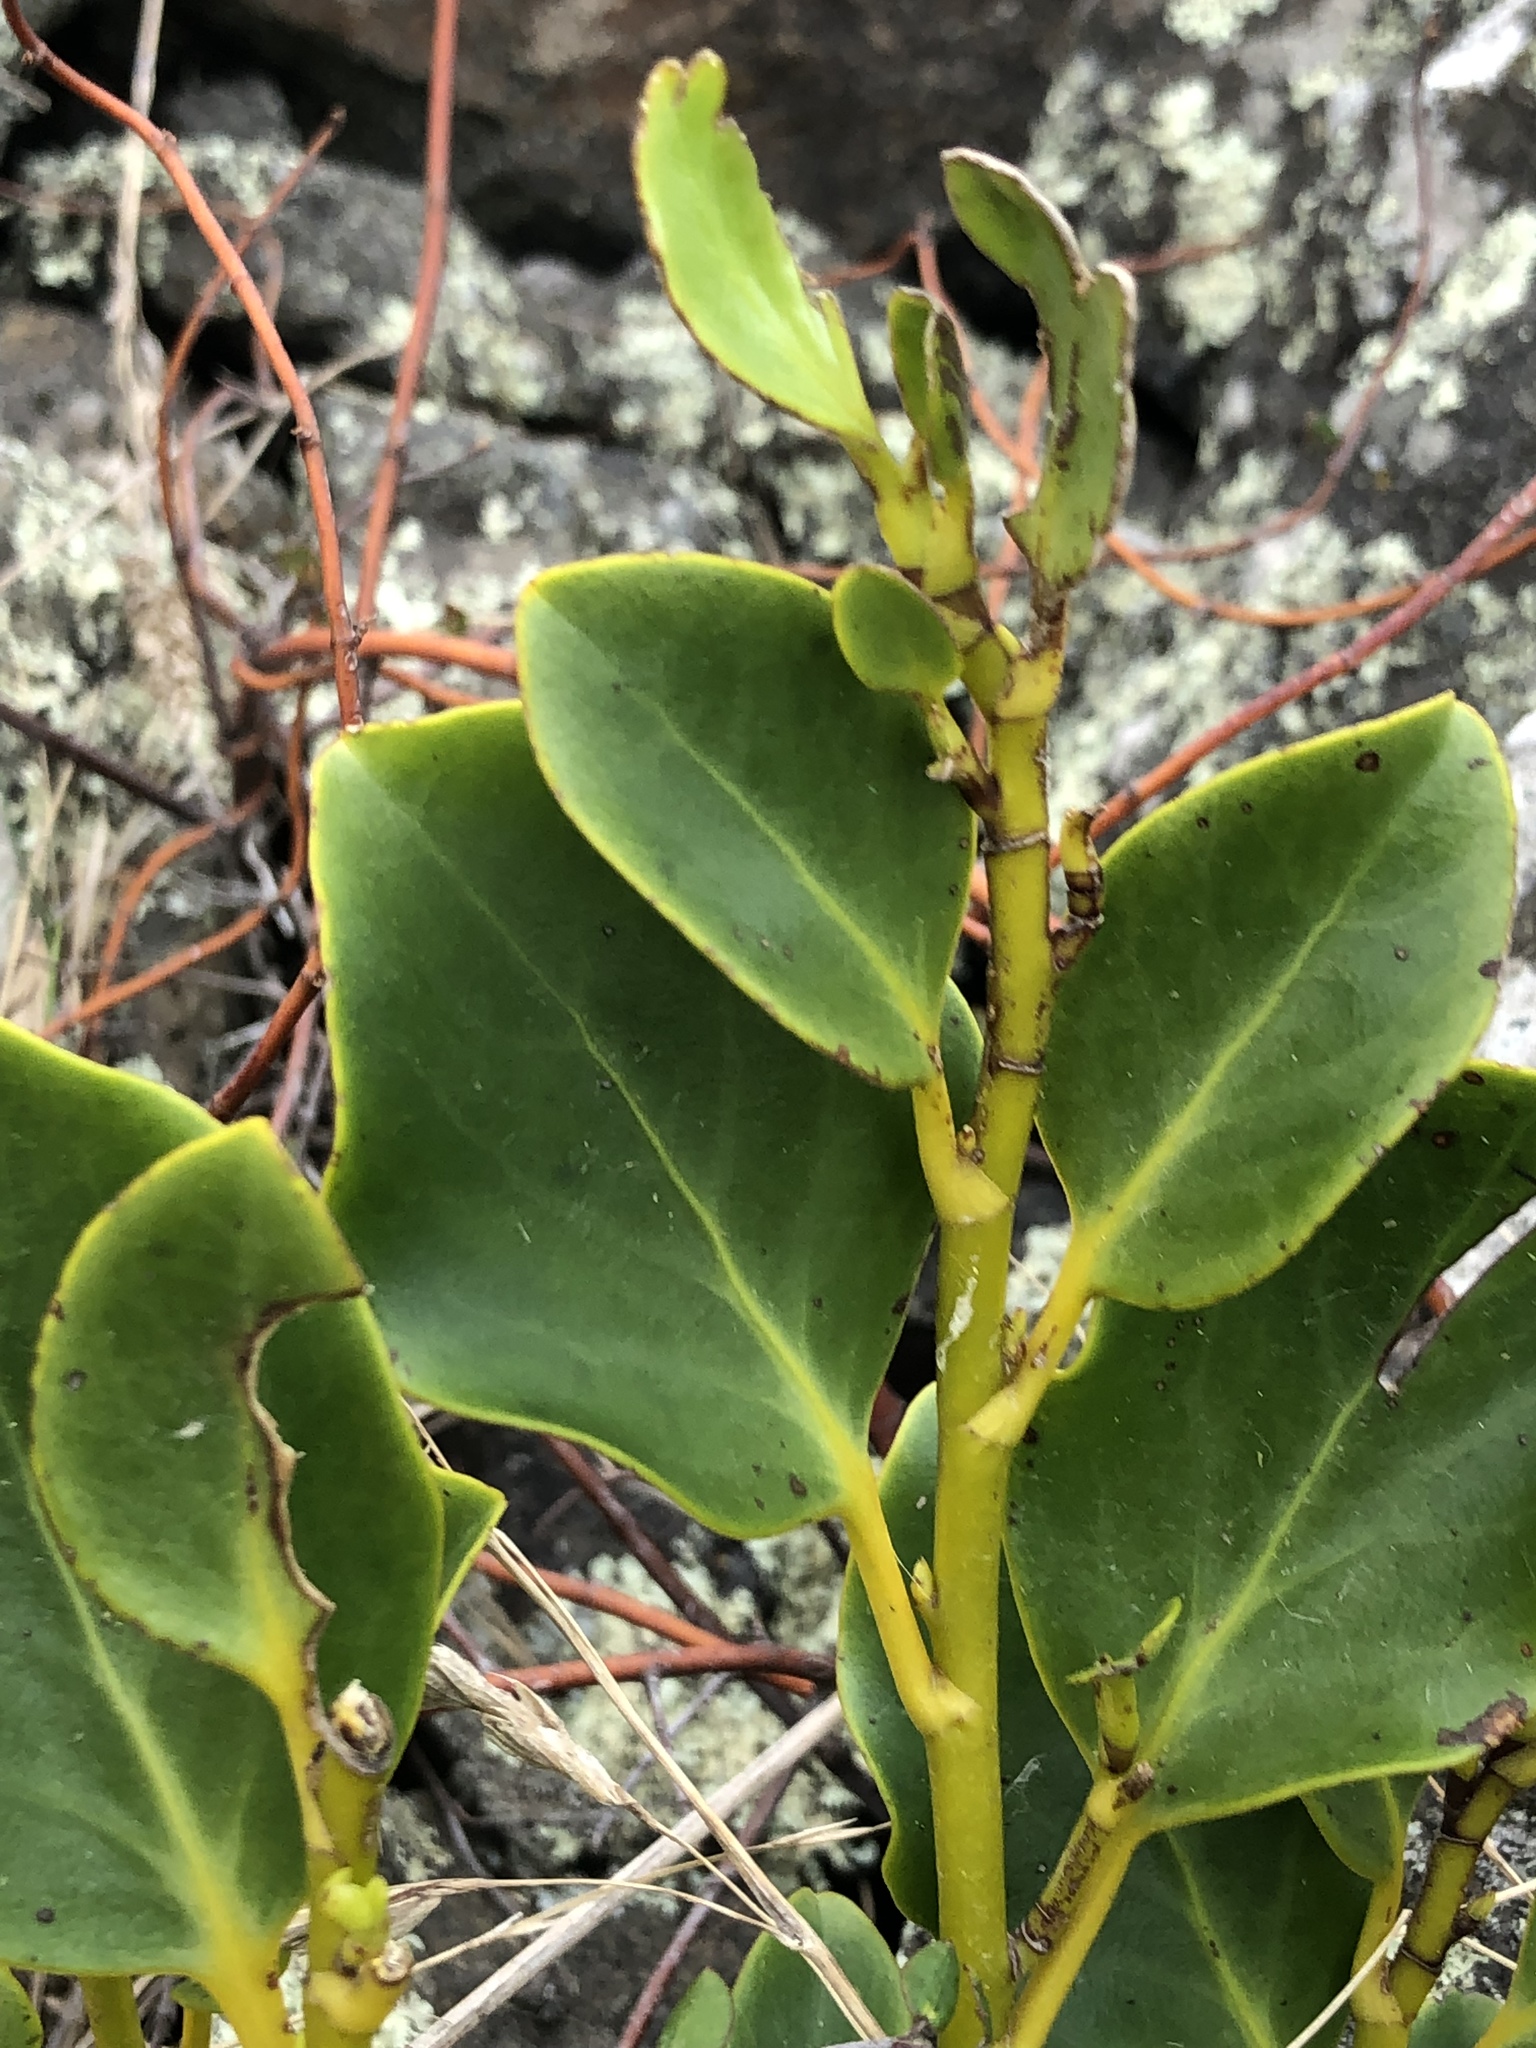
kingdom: Plantae
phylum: Tracheophyta
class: Magnoliopsida
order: Apiales
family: Griseliniaceae
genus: Griselinia
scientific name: Griselinia littoralis
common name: New zealand broadleaf
